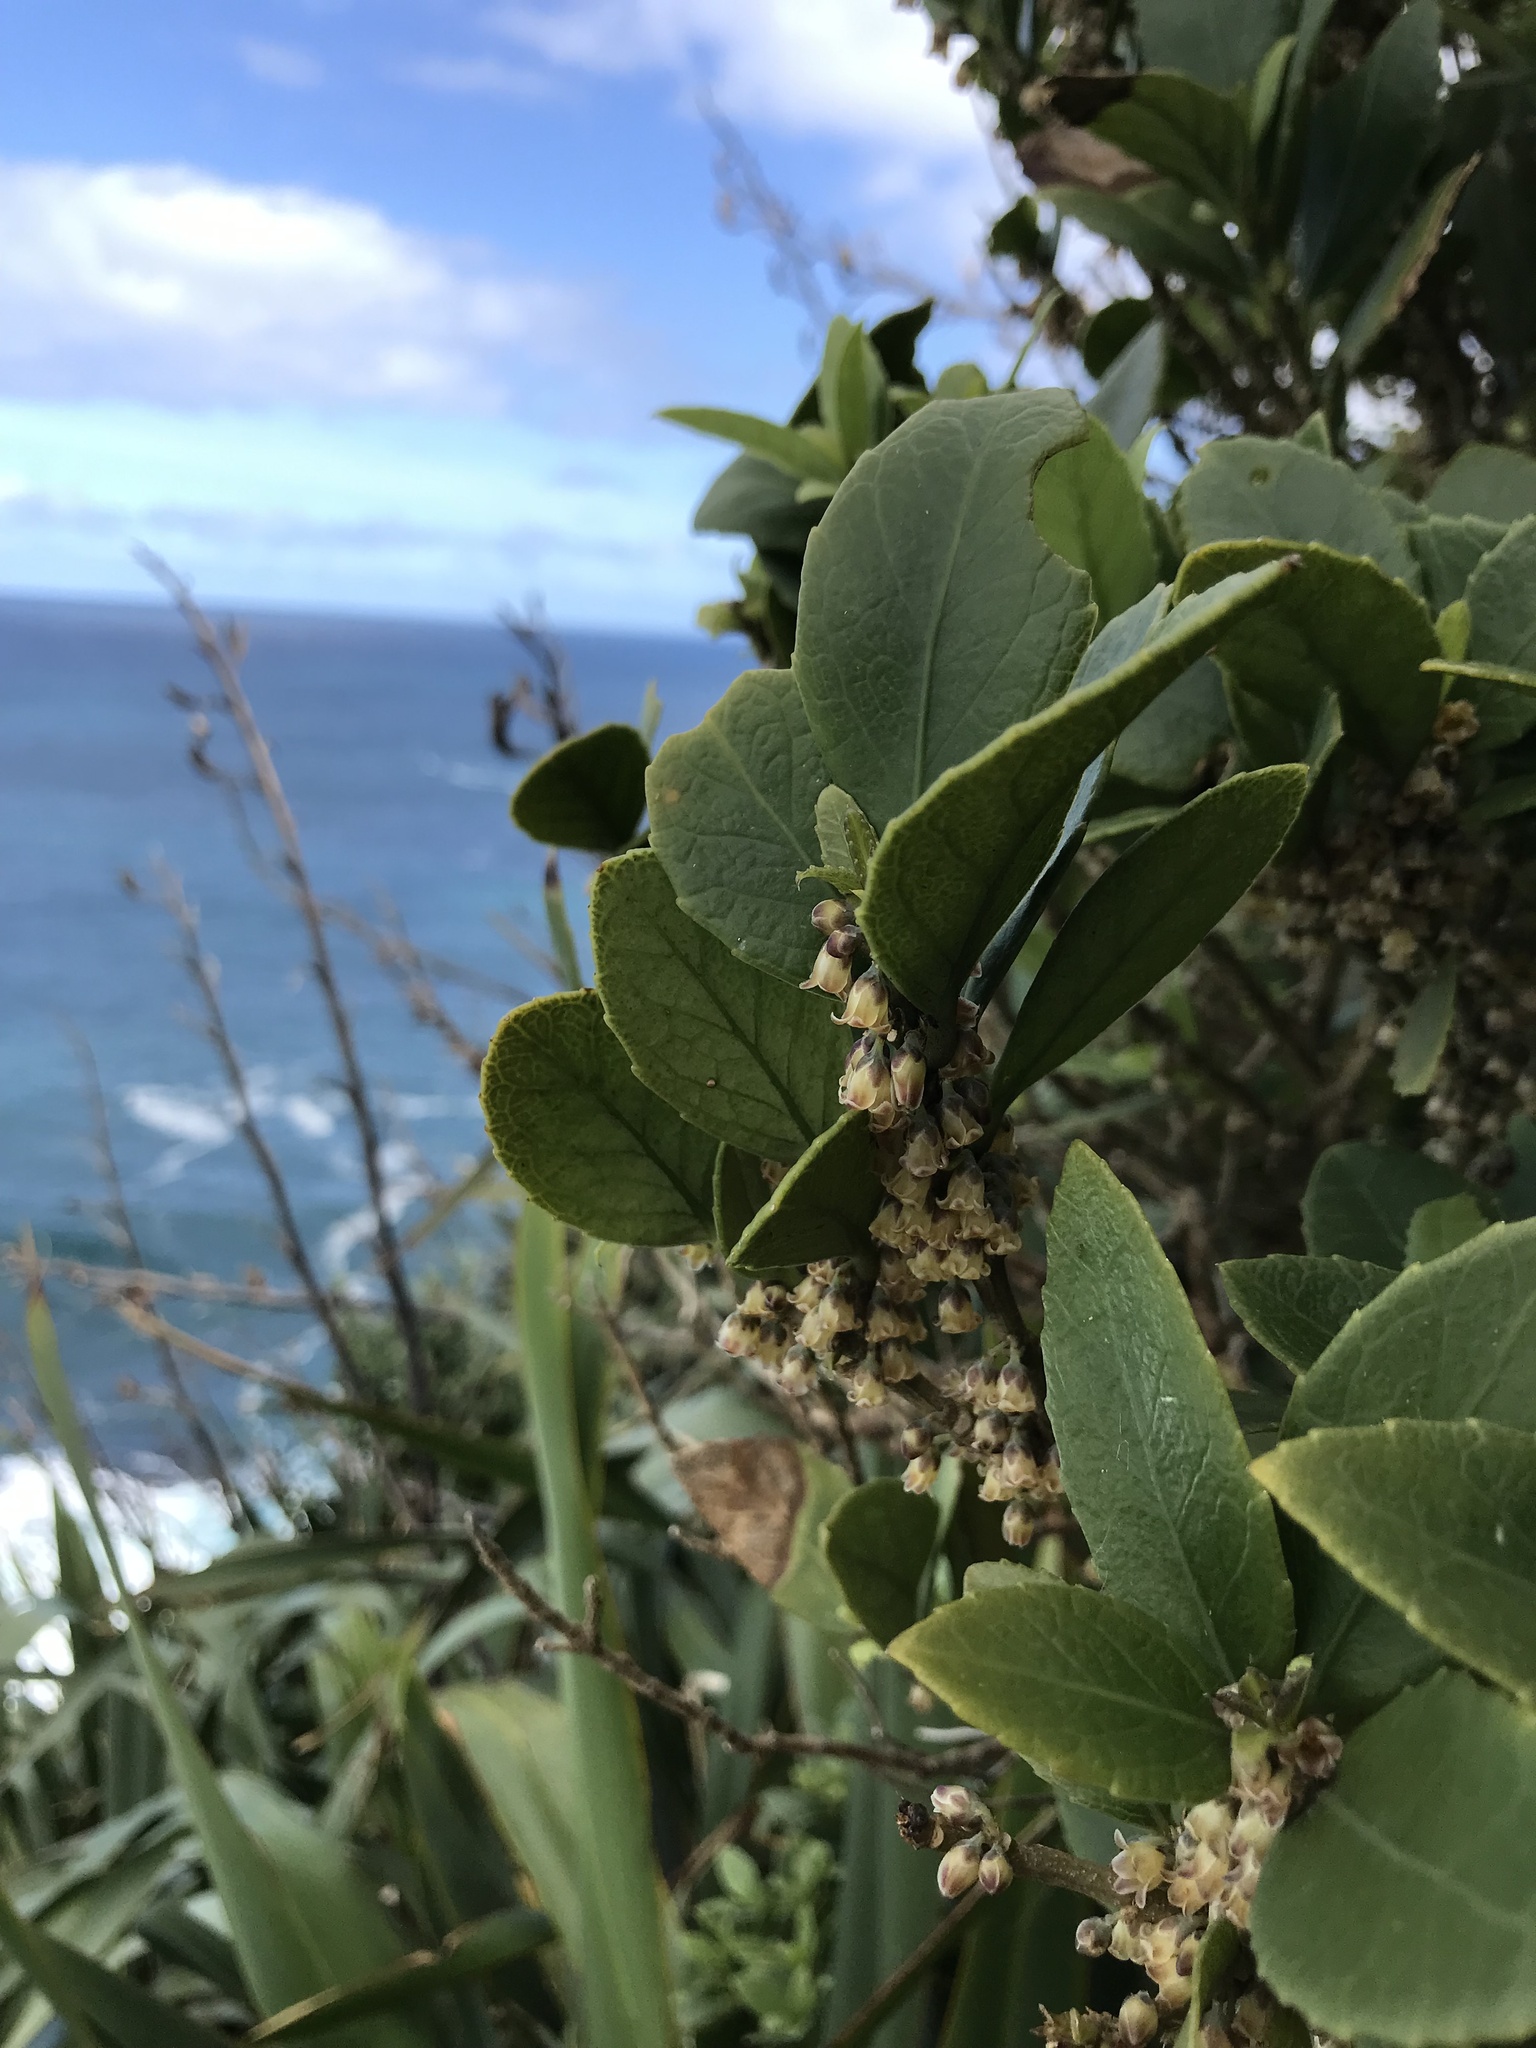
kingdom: Plantae
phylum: Tracheophyta
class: Magnoliopsida
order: Malpighiales
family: Violaceae
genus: Melicytus
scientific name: Melicytus chathamicus
